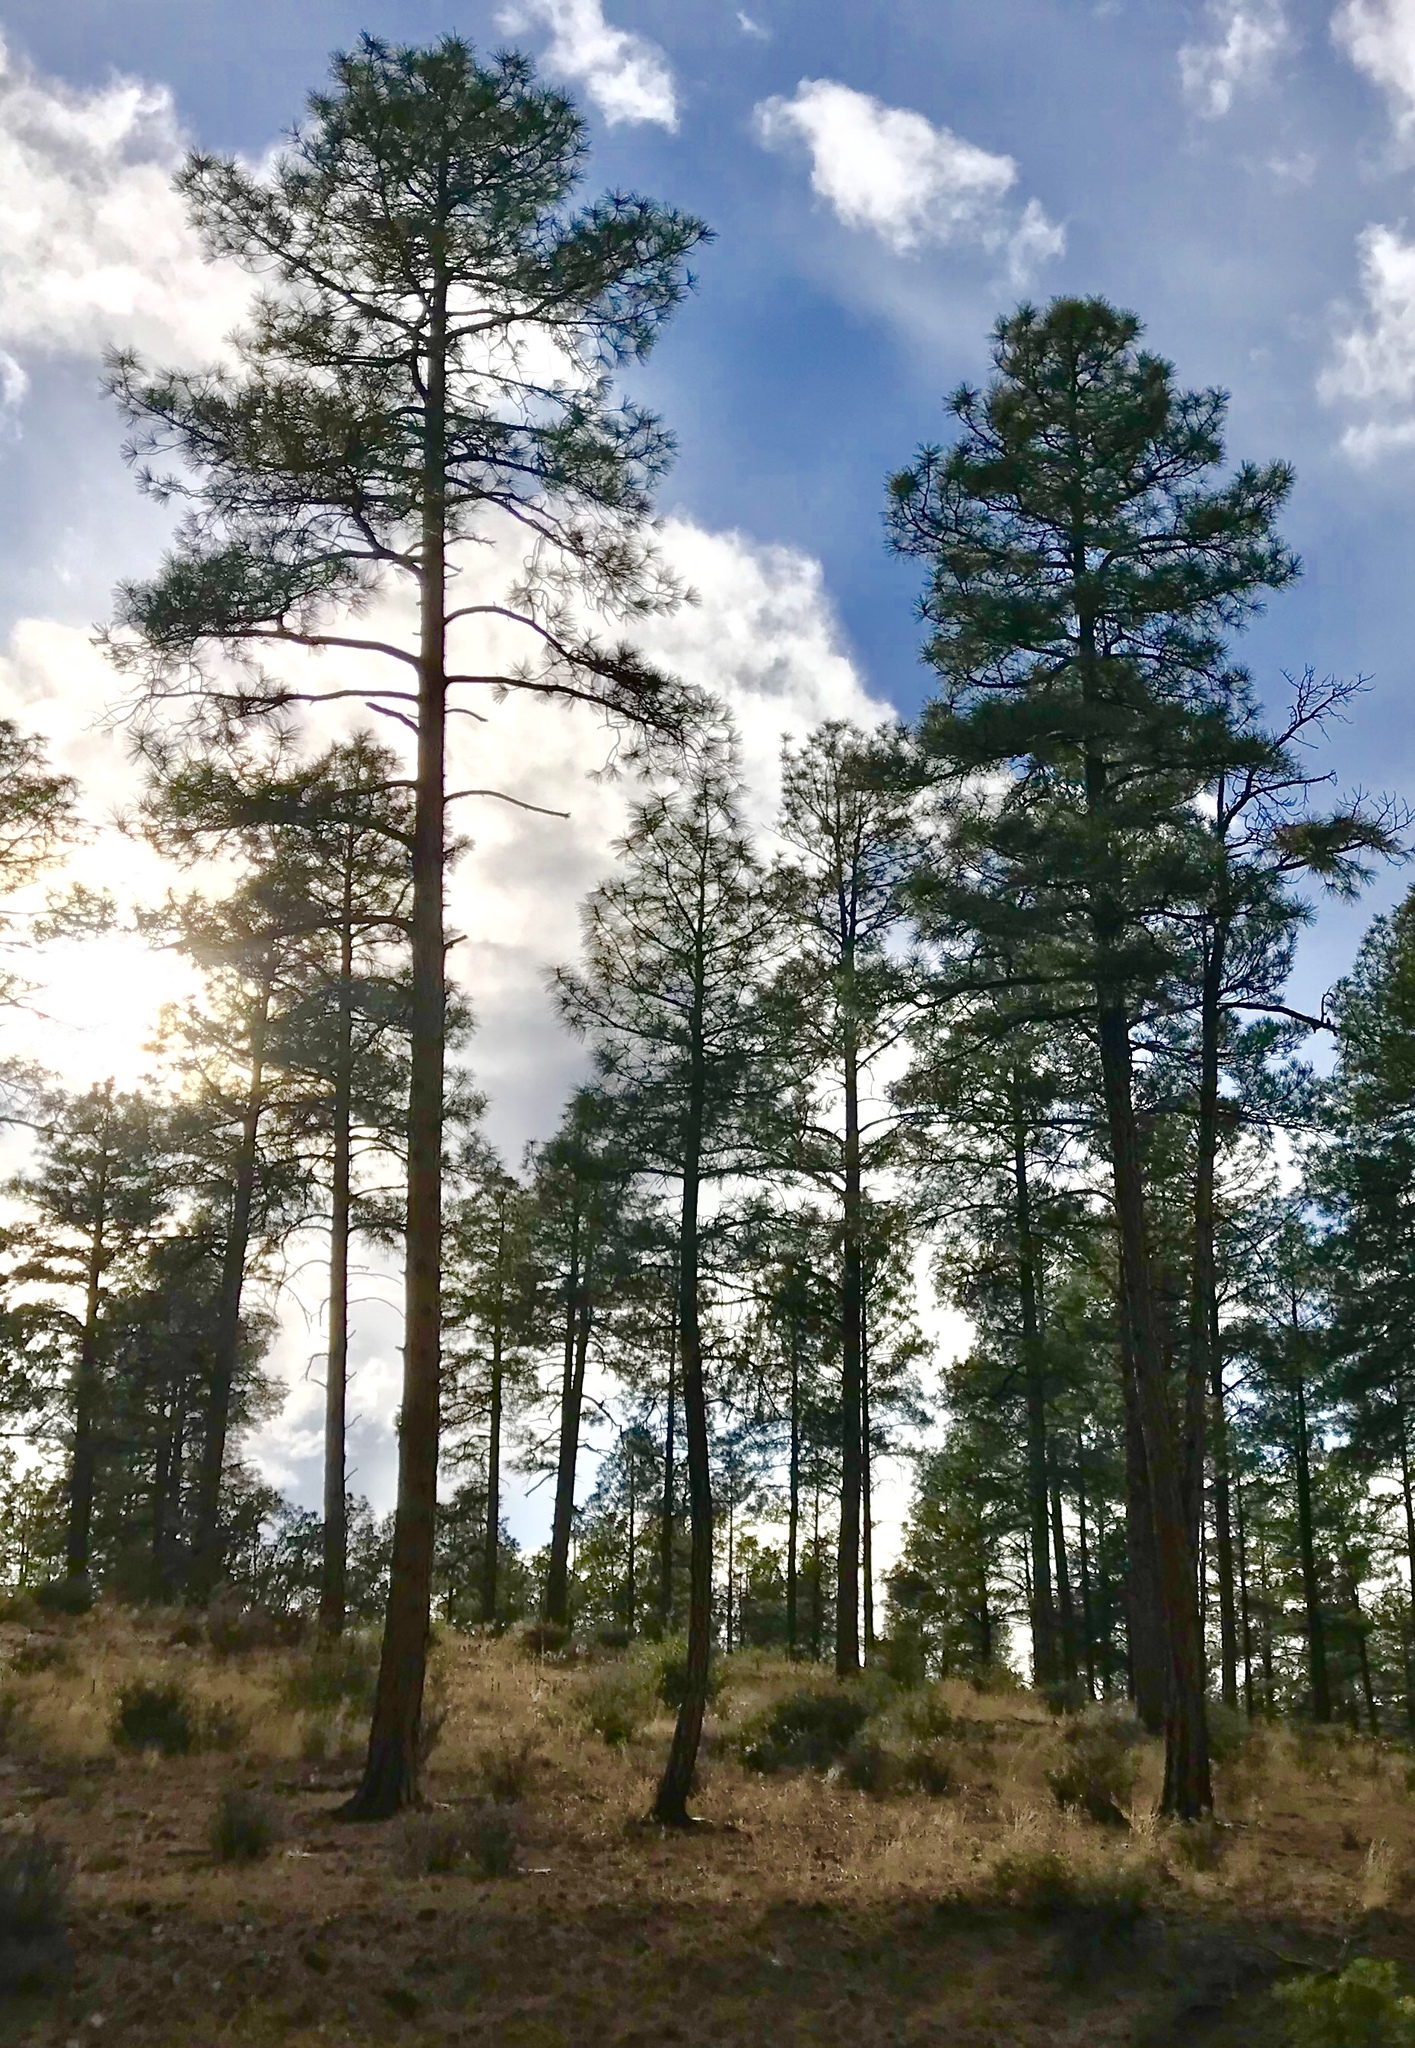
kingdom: Plantae
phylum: Tracheophyta
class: Pinopsida
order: Pinales
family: Pinaceae
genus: Pinus
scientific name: Pinus ponderosa
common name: Western yellow-pine
